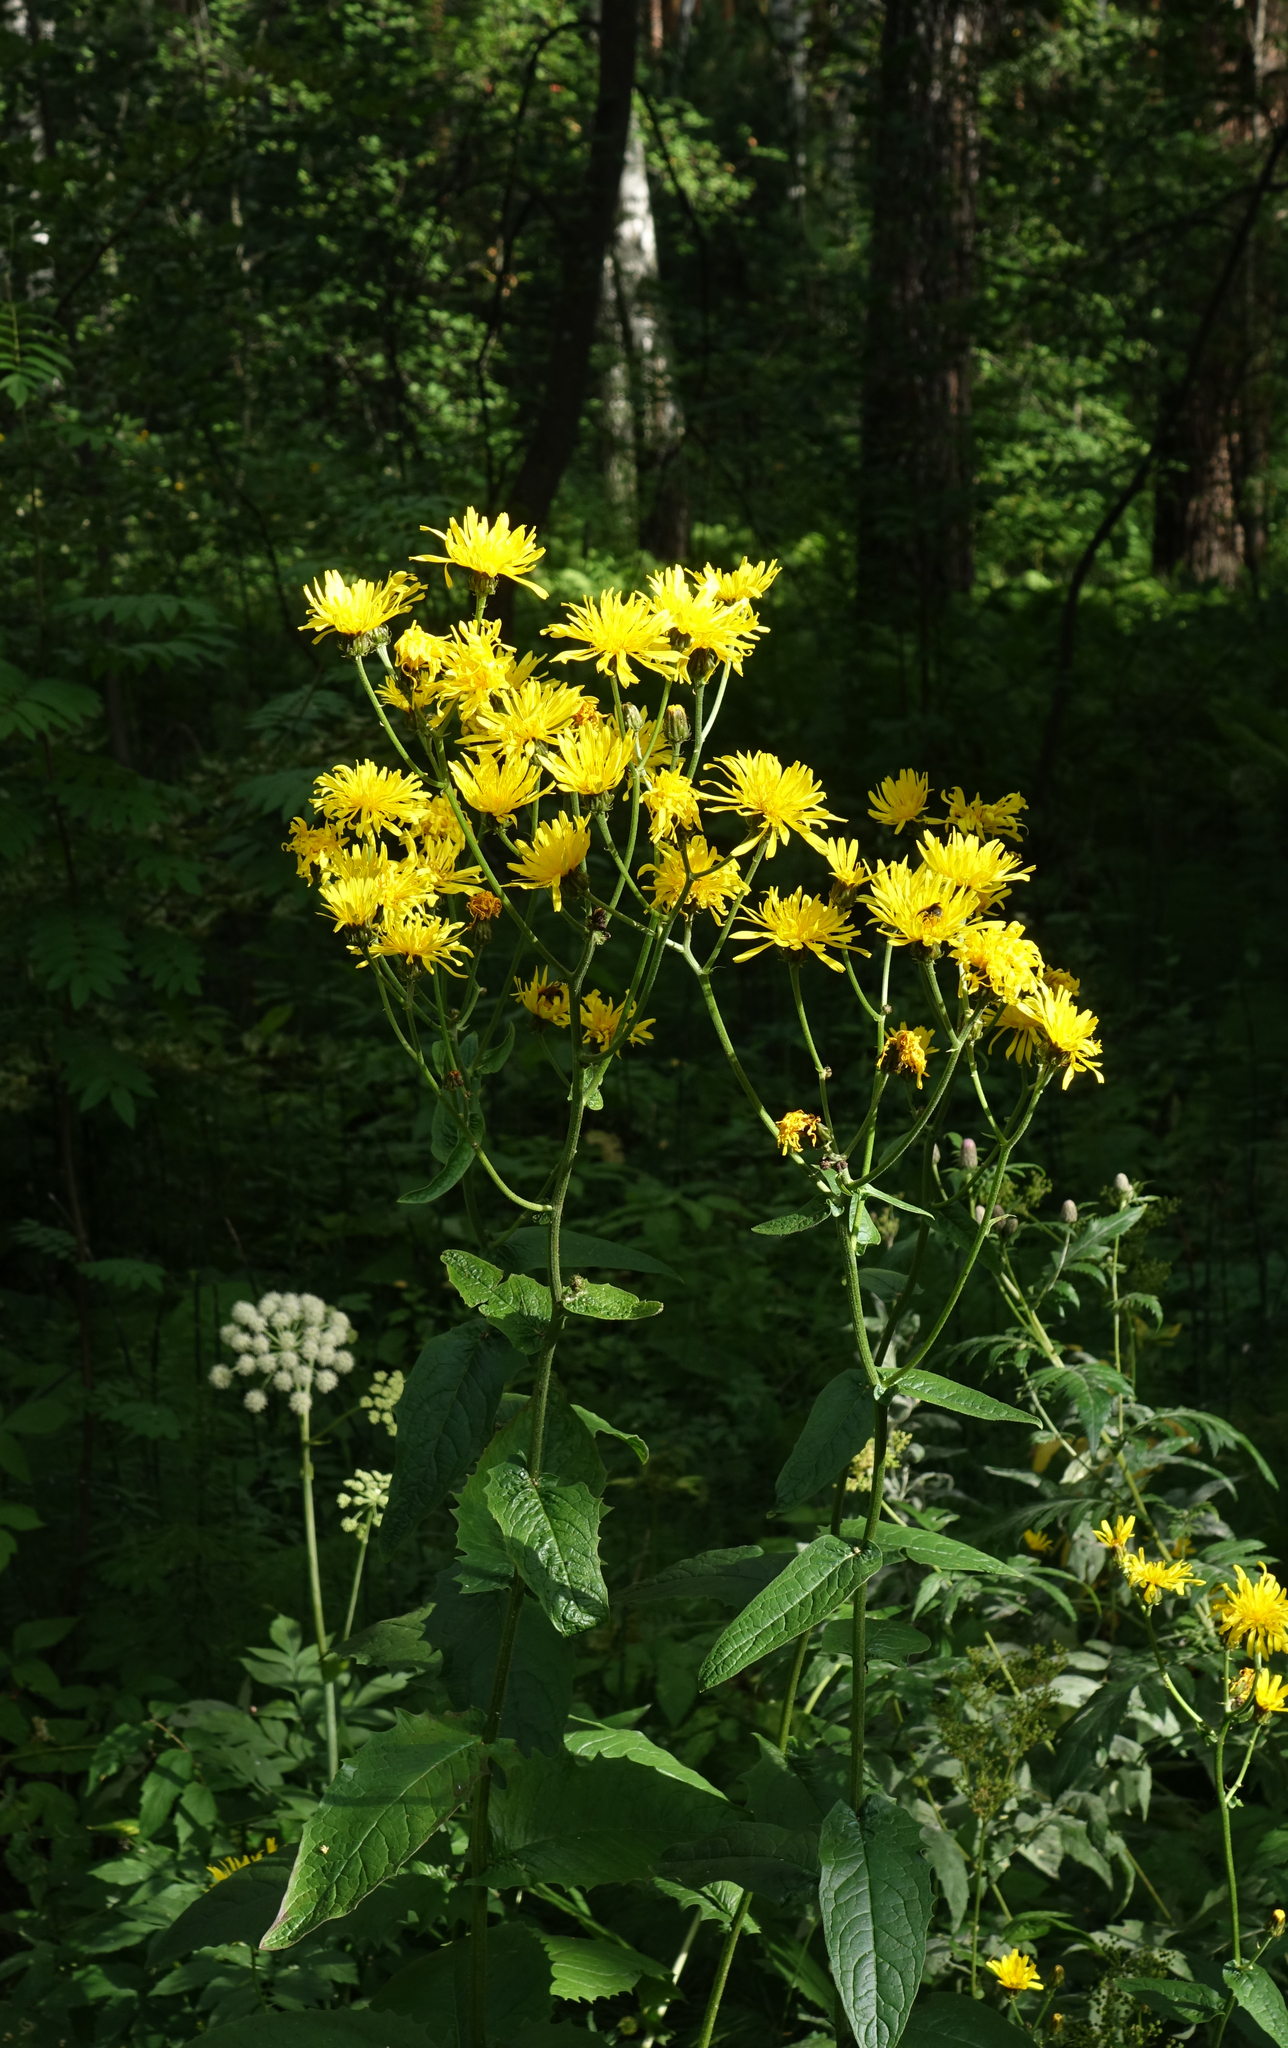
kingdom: Plantae
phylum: Tracheophyta
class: Magnoliopsida
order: Asterales
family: Asteraceae
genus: Crepis
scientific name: Crepis sibirica
